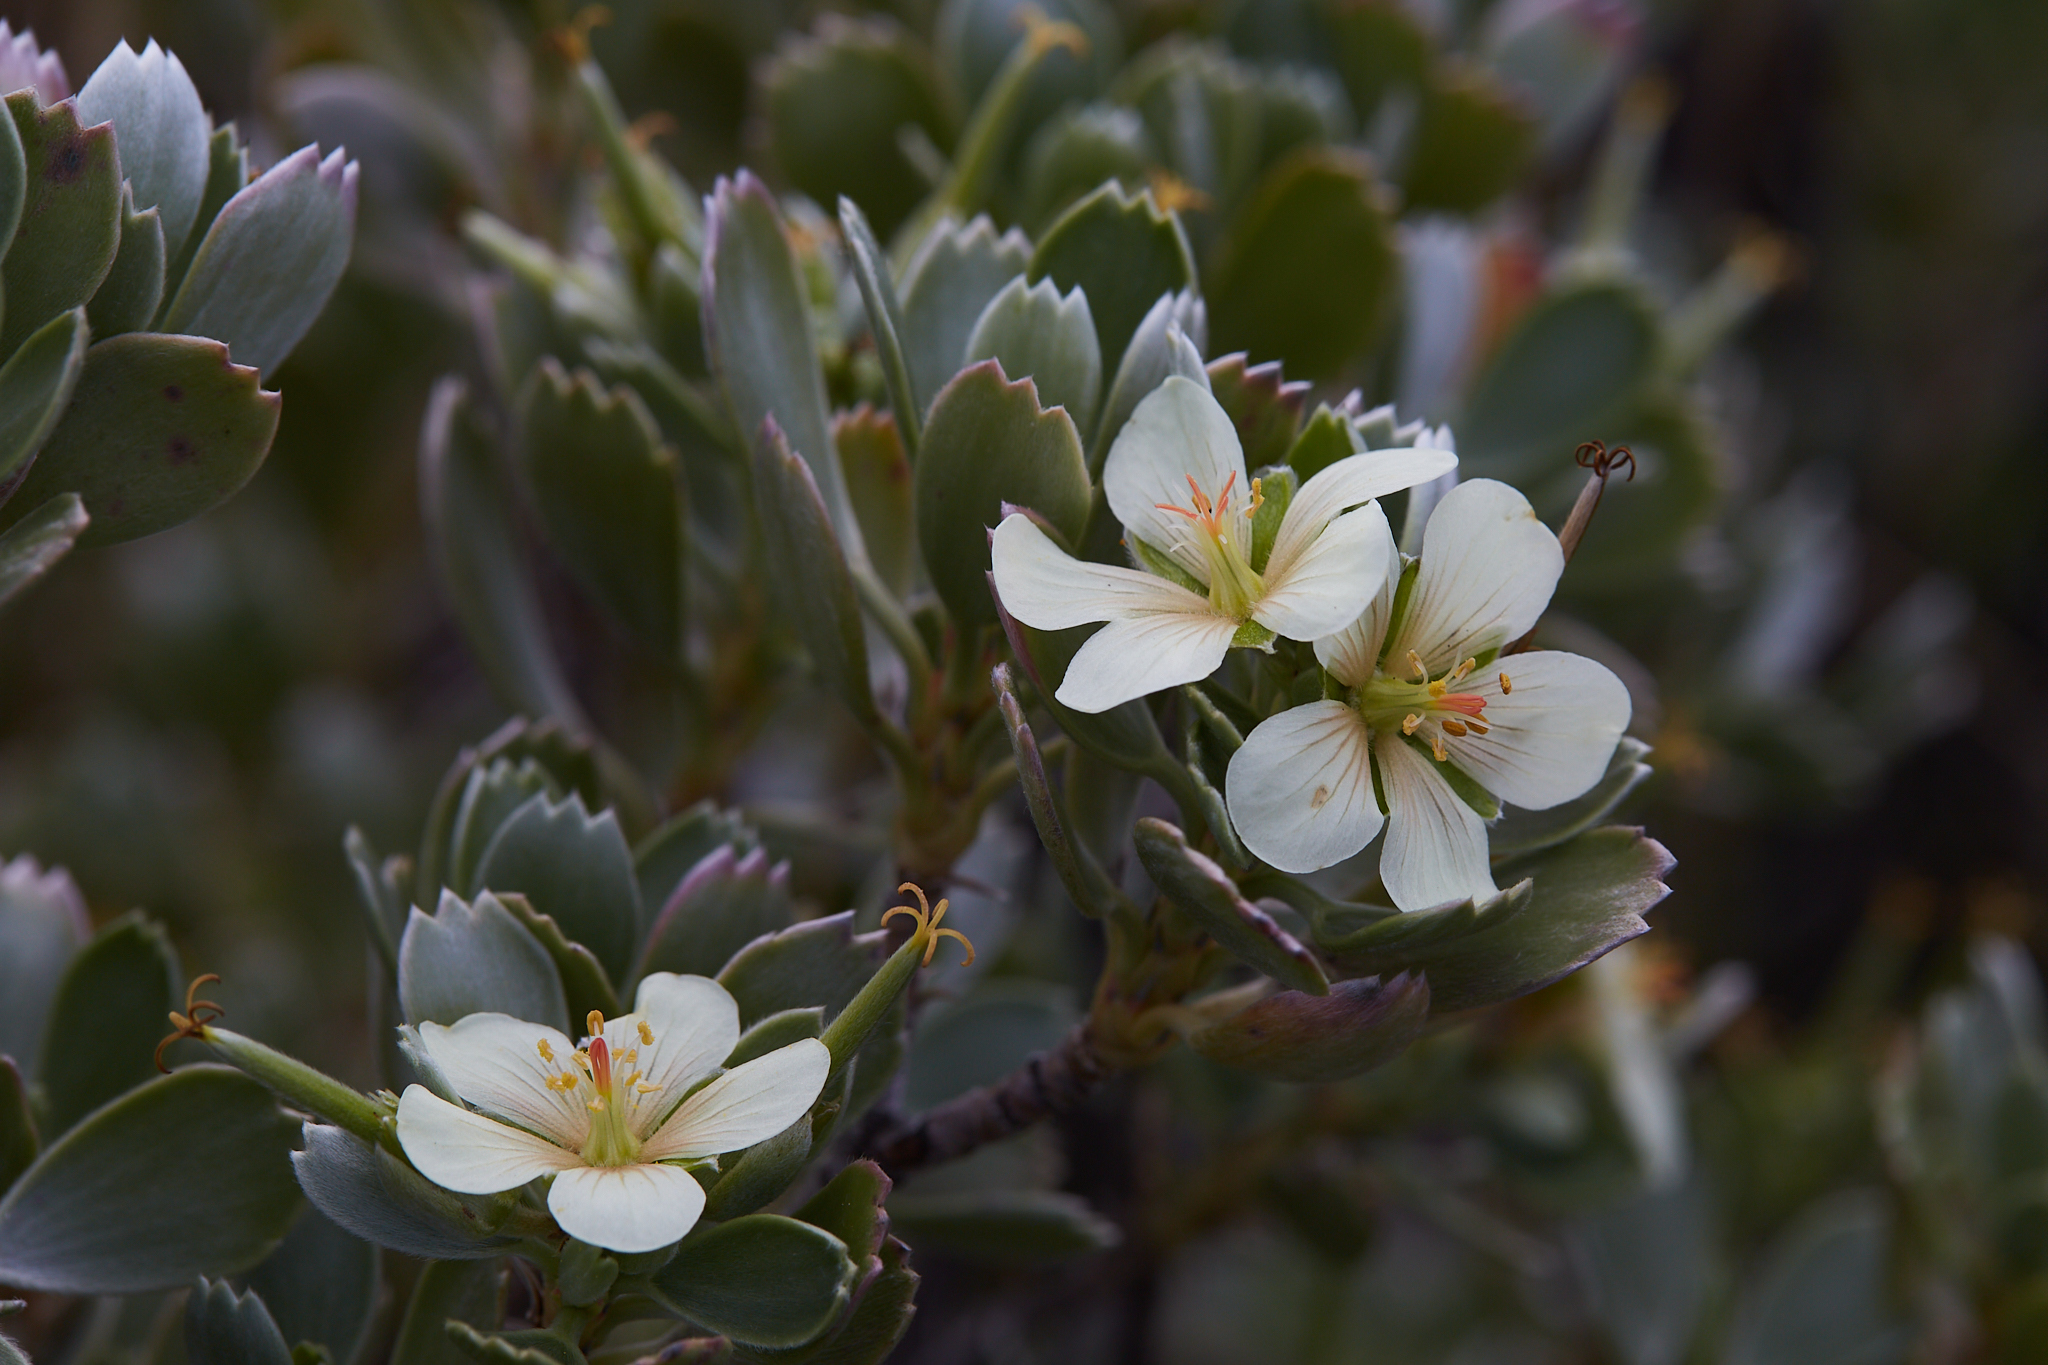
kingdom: Plantae
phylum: Tracheophyta
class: Magnoliopsida
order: Geraniales
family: Geraniaceae
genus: Geranium
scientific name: Geranium cuneatum
